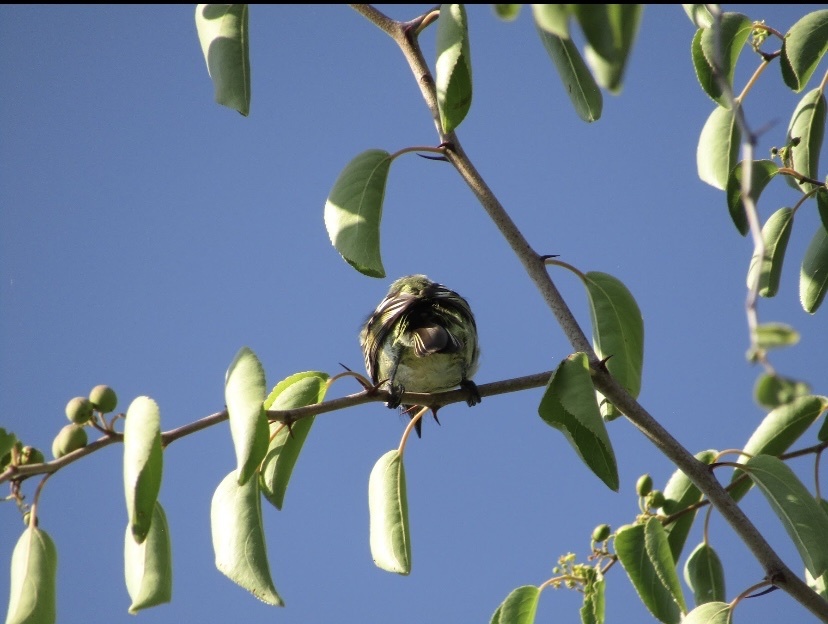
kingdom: Animalia
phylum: Chordata
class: Aves
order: Piciformes
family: Lybiidae
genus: Pogoniulus
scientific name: Pogoniulus chrysoconus
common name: Yellow-fronted tinkerbird
